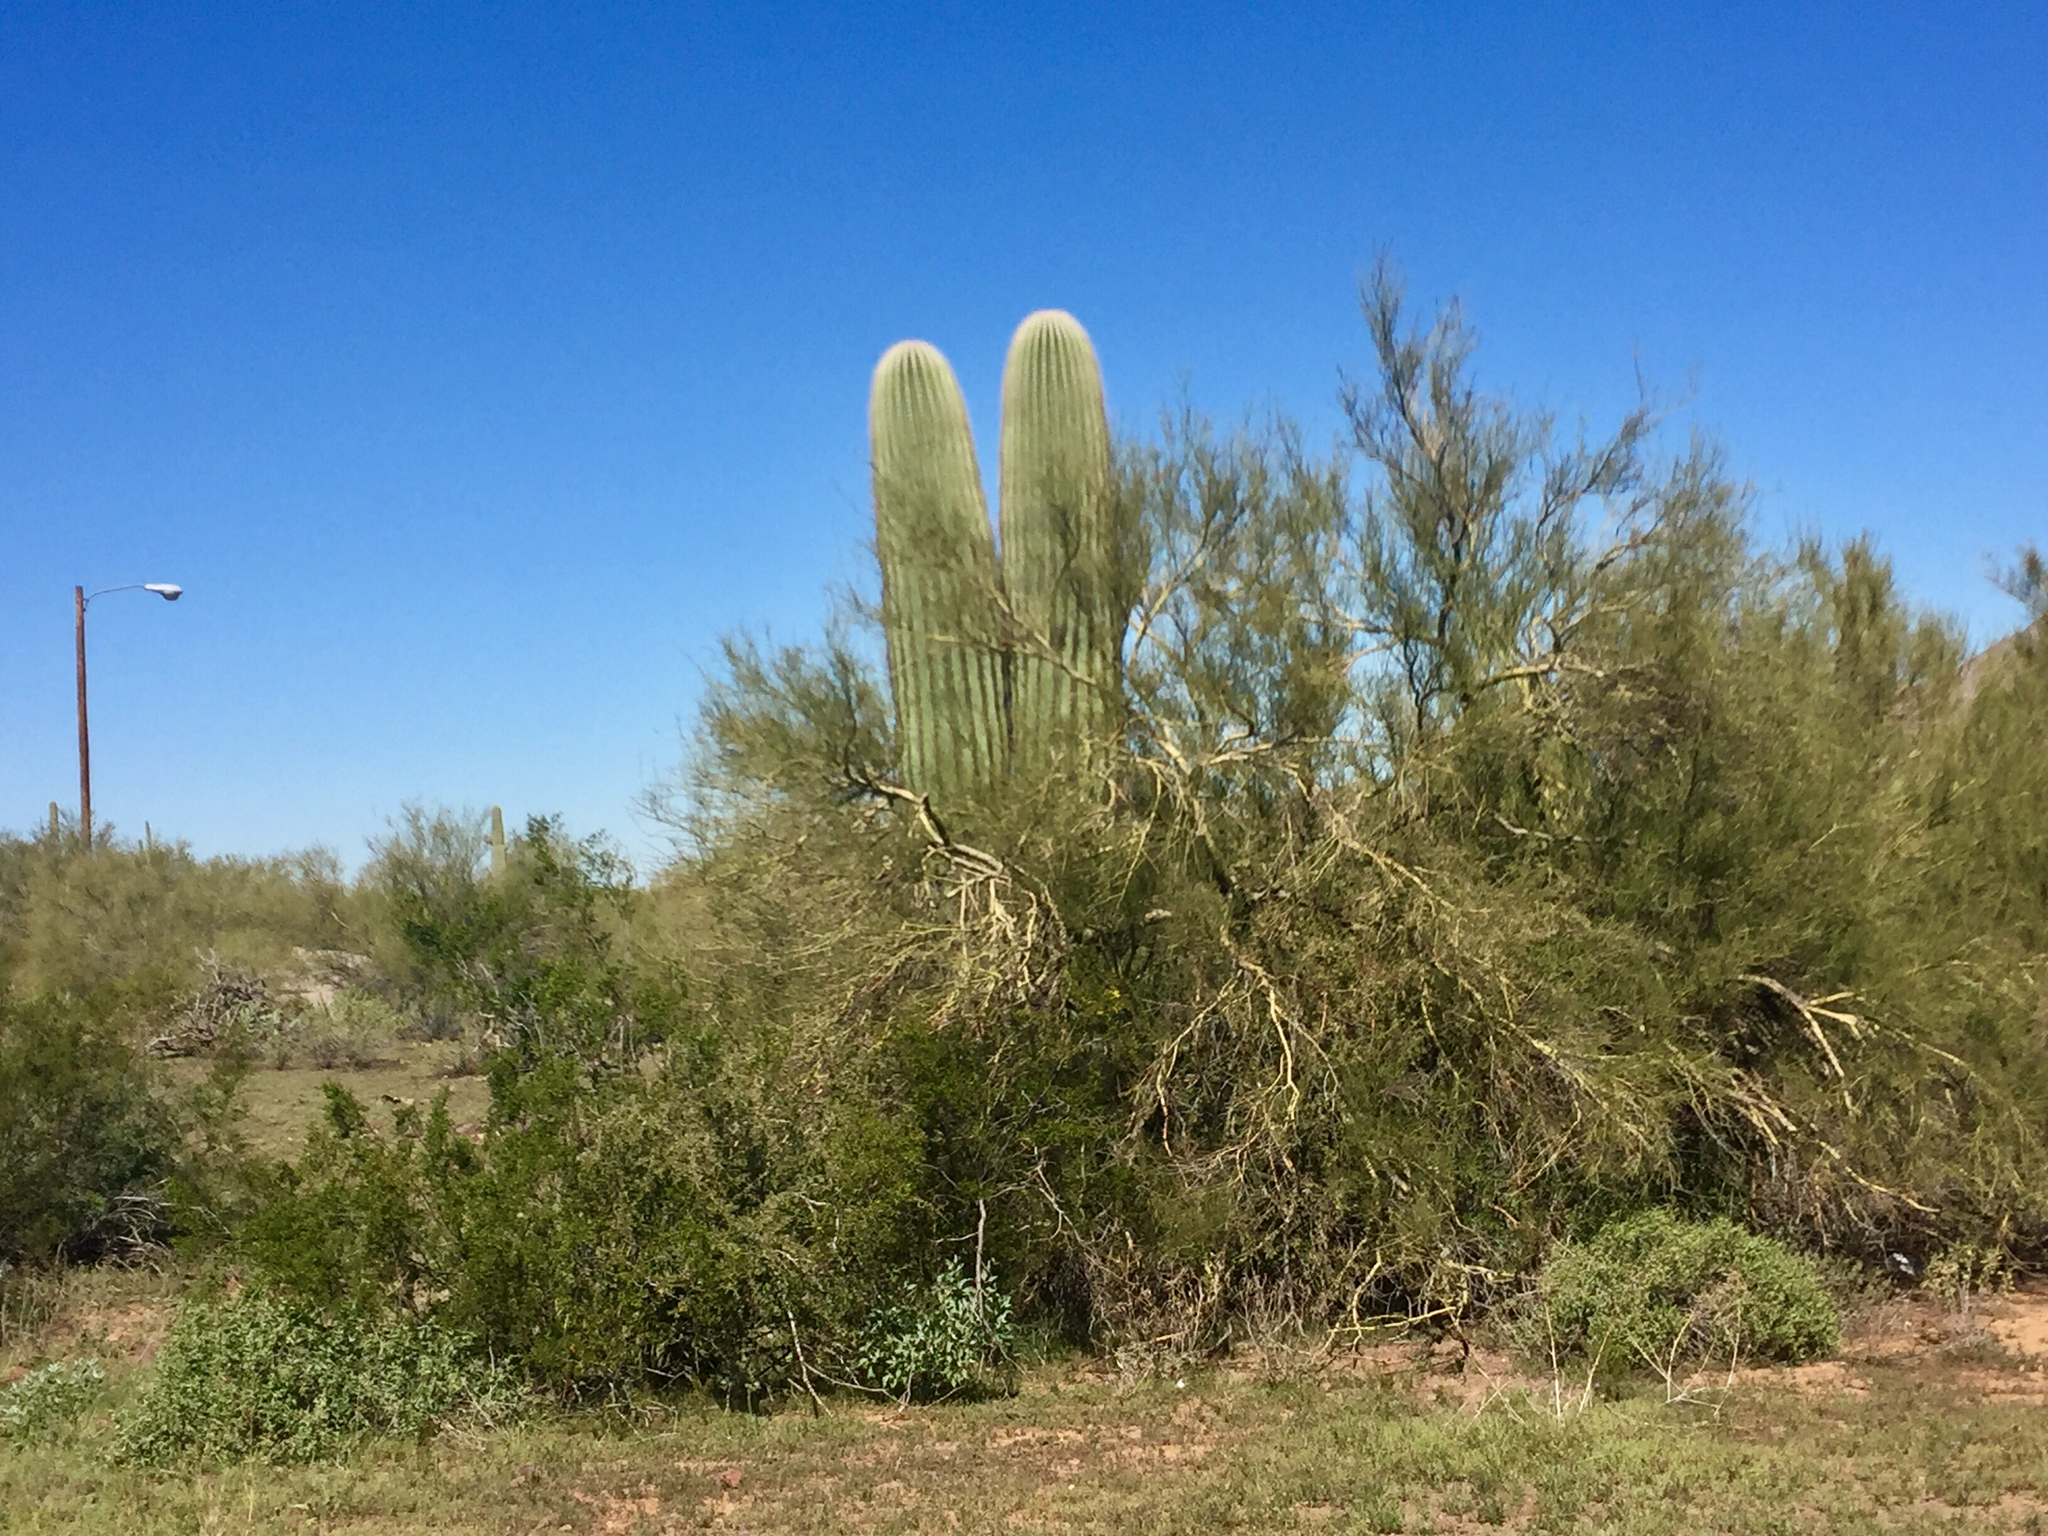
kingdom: Plantae
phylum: Tracheophyta
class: Magnoliopsida
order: Fabales
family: Fabaceae
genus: Parkinsonia
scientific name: Parkinsonia microphylla
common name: Yellow paloverde
